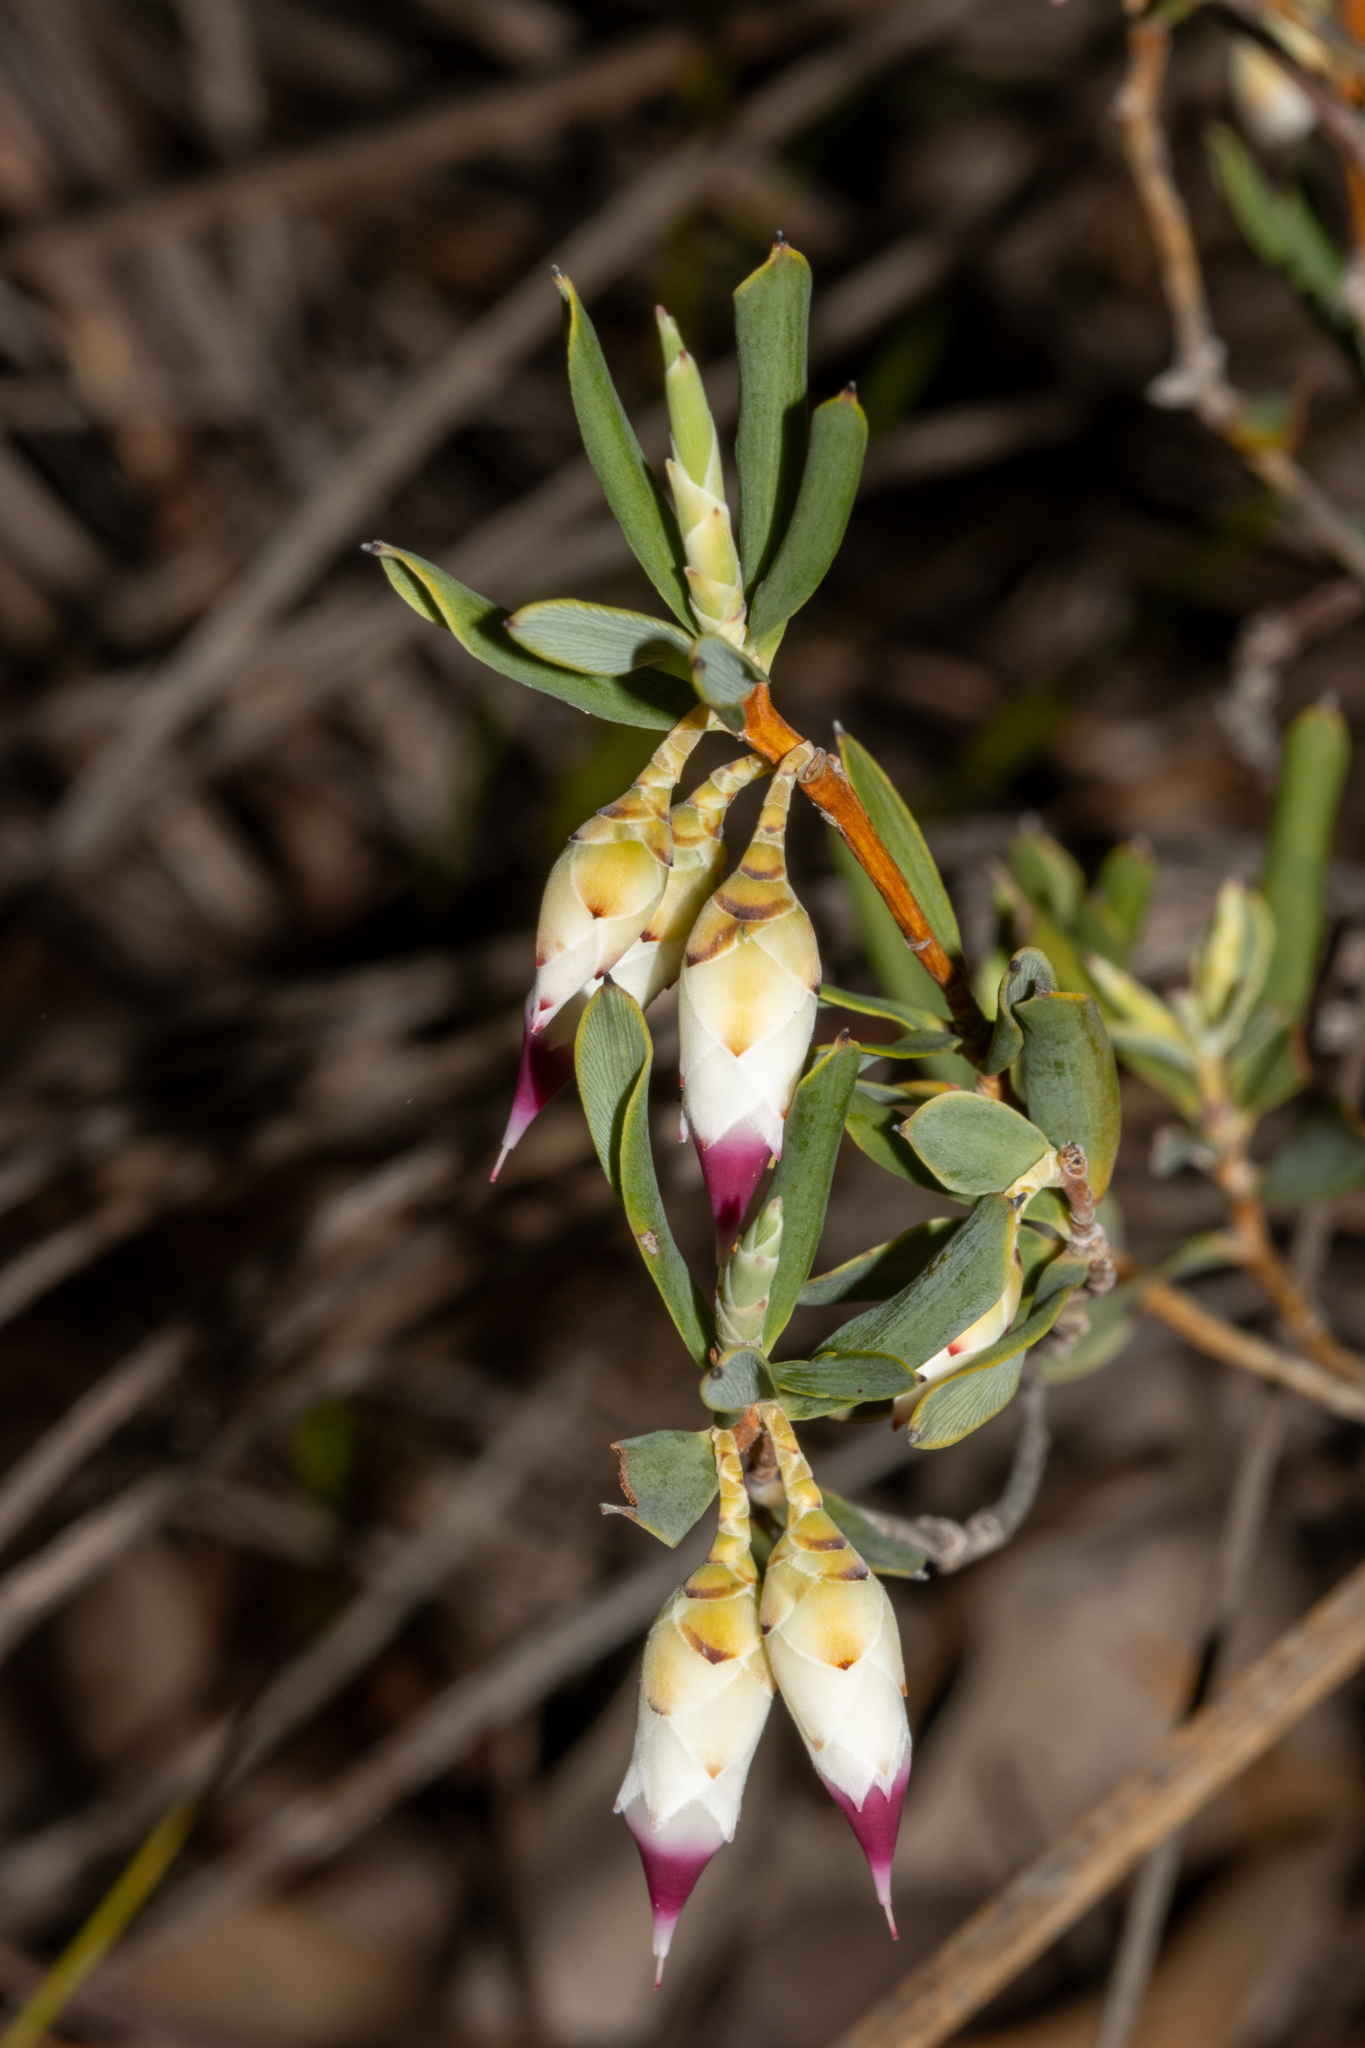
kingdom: Plantae
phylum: Tracheophyta
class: Magnoliopsida
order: Ericales
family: Ericaceae
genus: Conostephium
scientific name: Conostephium pendulum
